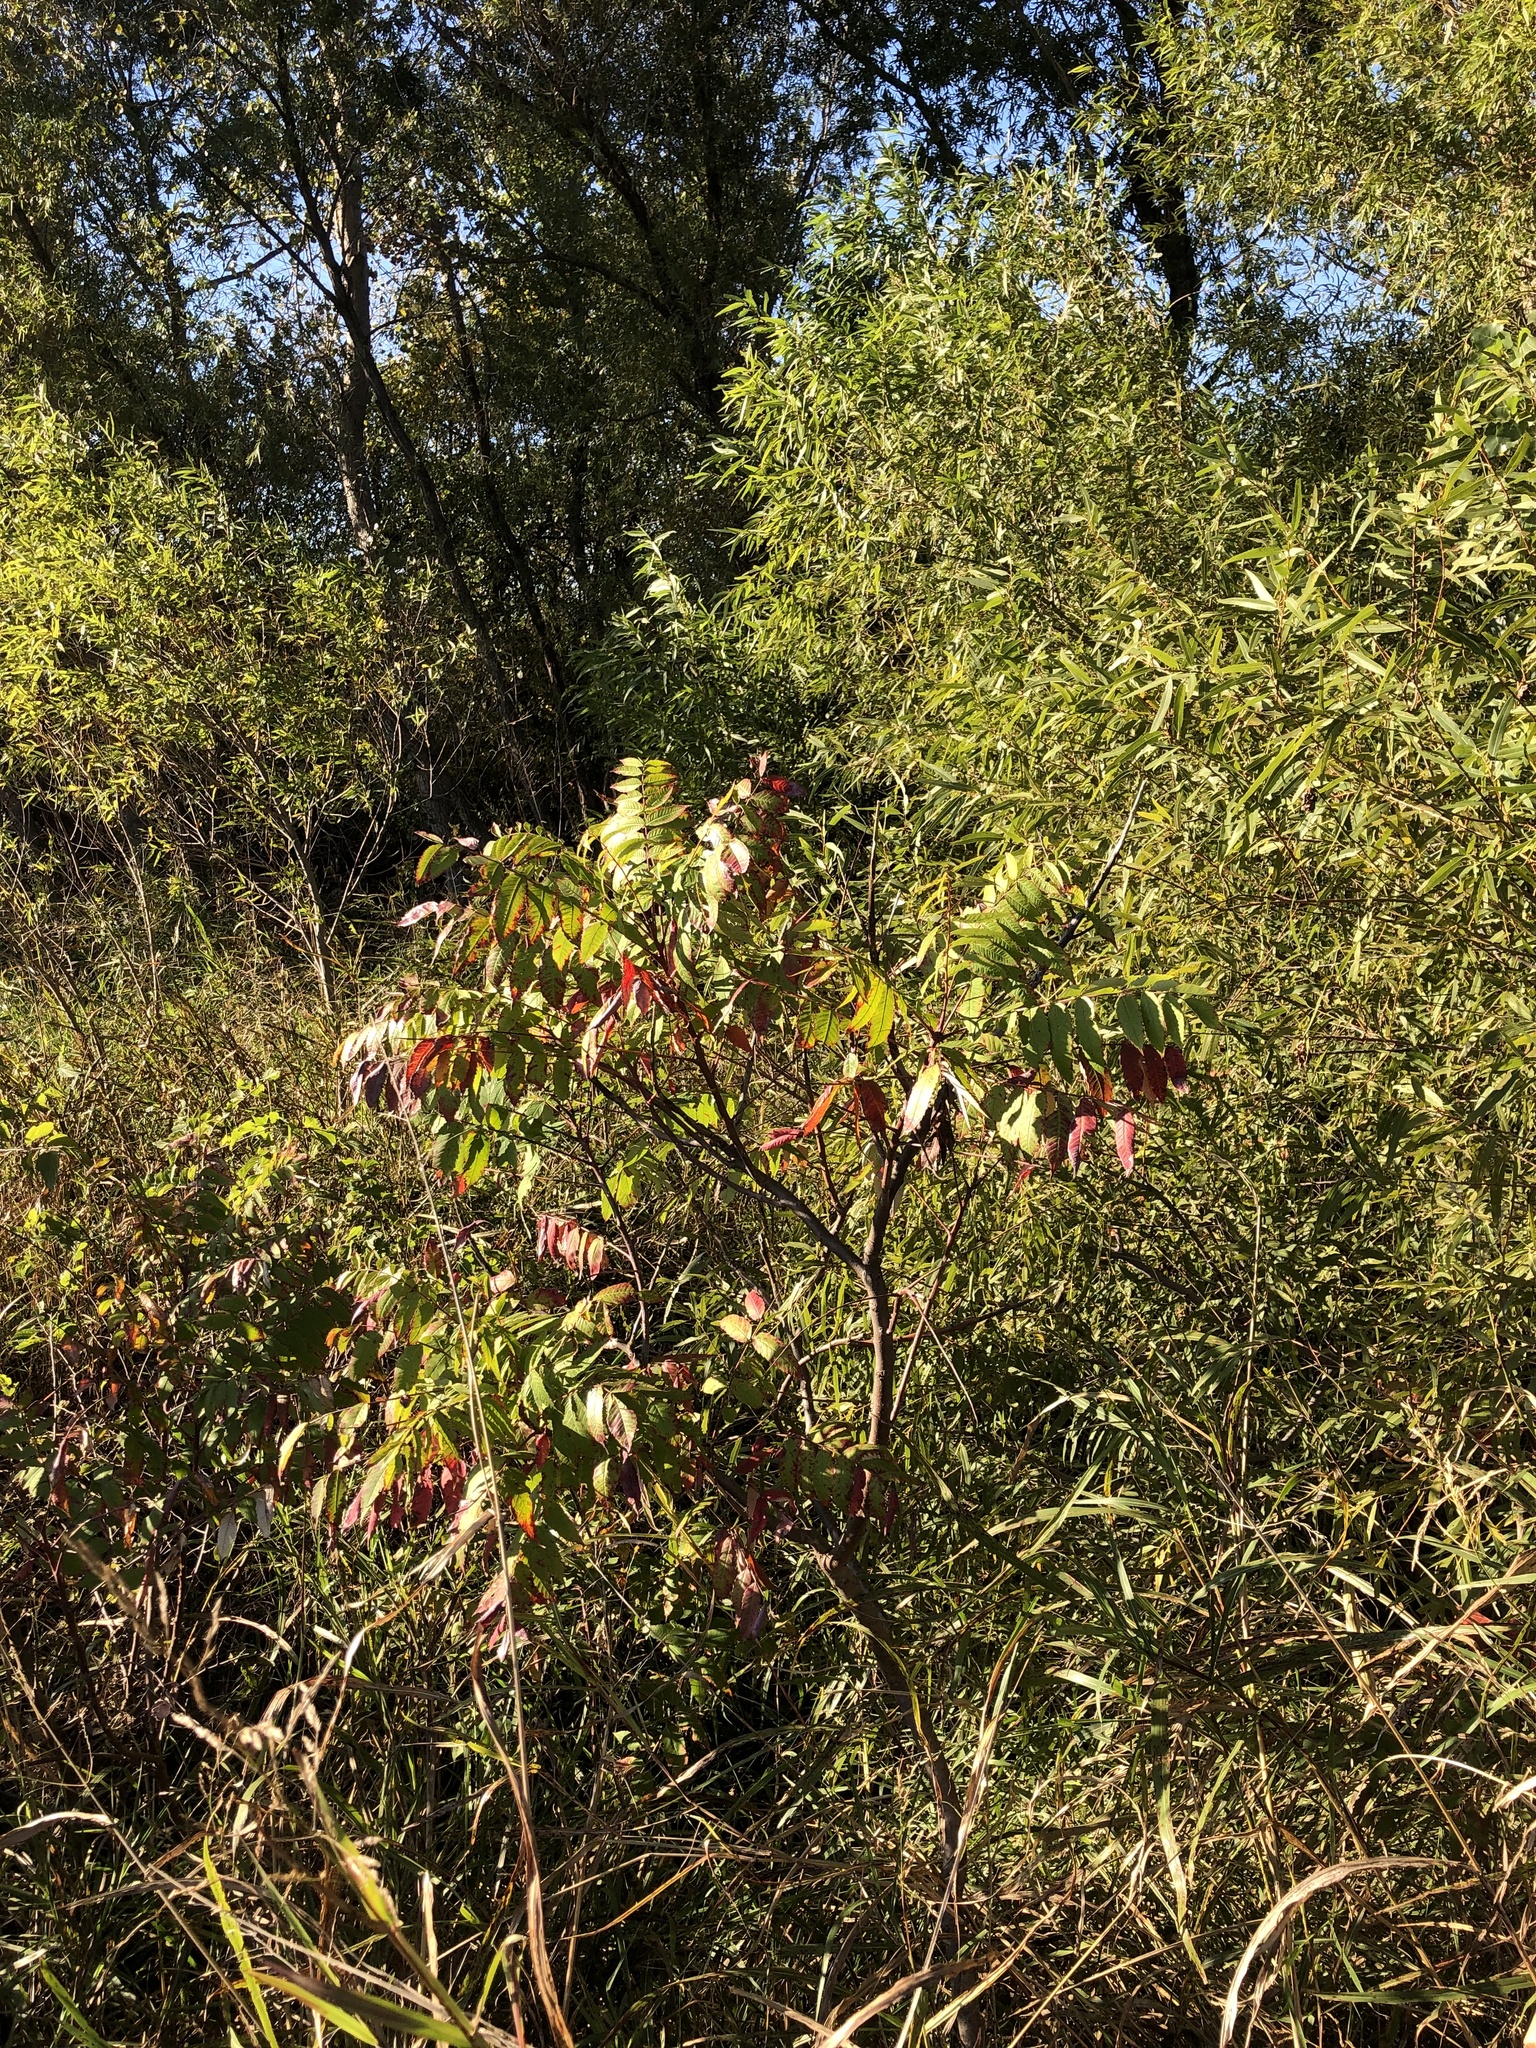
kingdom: Plantae
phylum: Tracheophyta
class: Magnoliopsida
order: Sapindales
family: Anacardiaceae
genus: Rhus
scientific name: Rhus glabra
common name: Scarlet sumac
